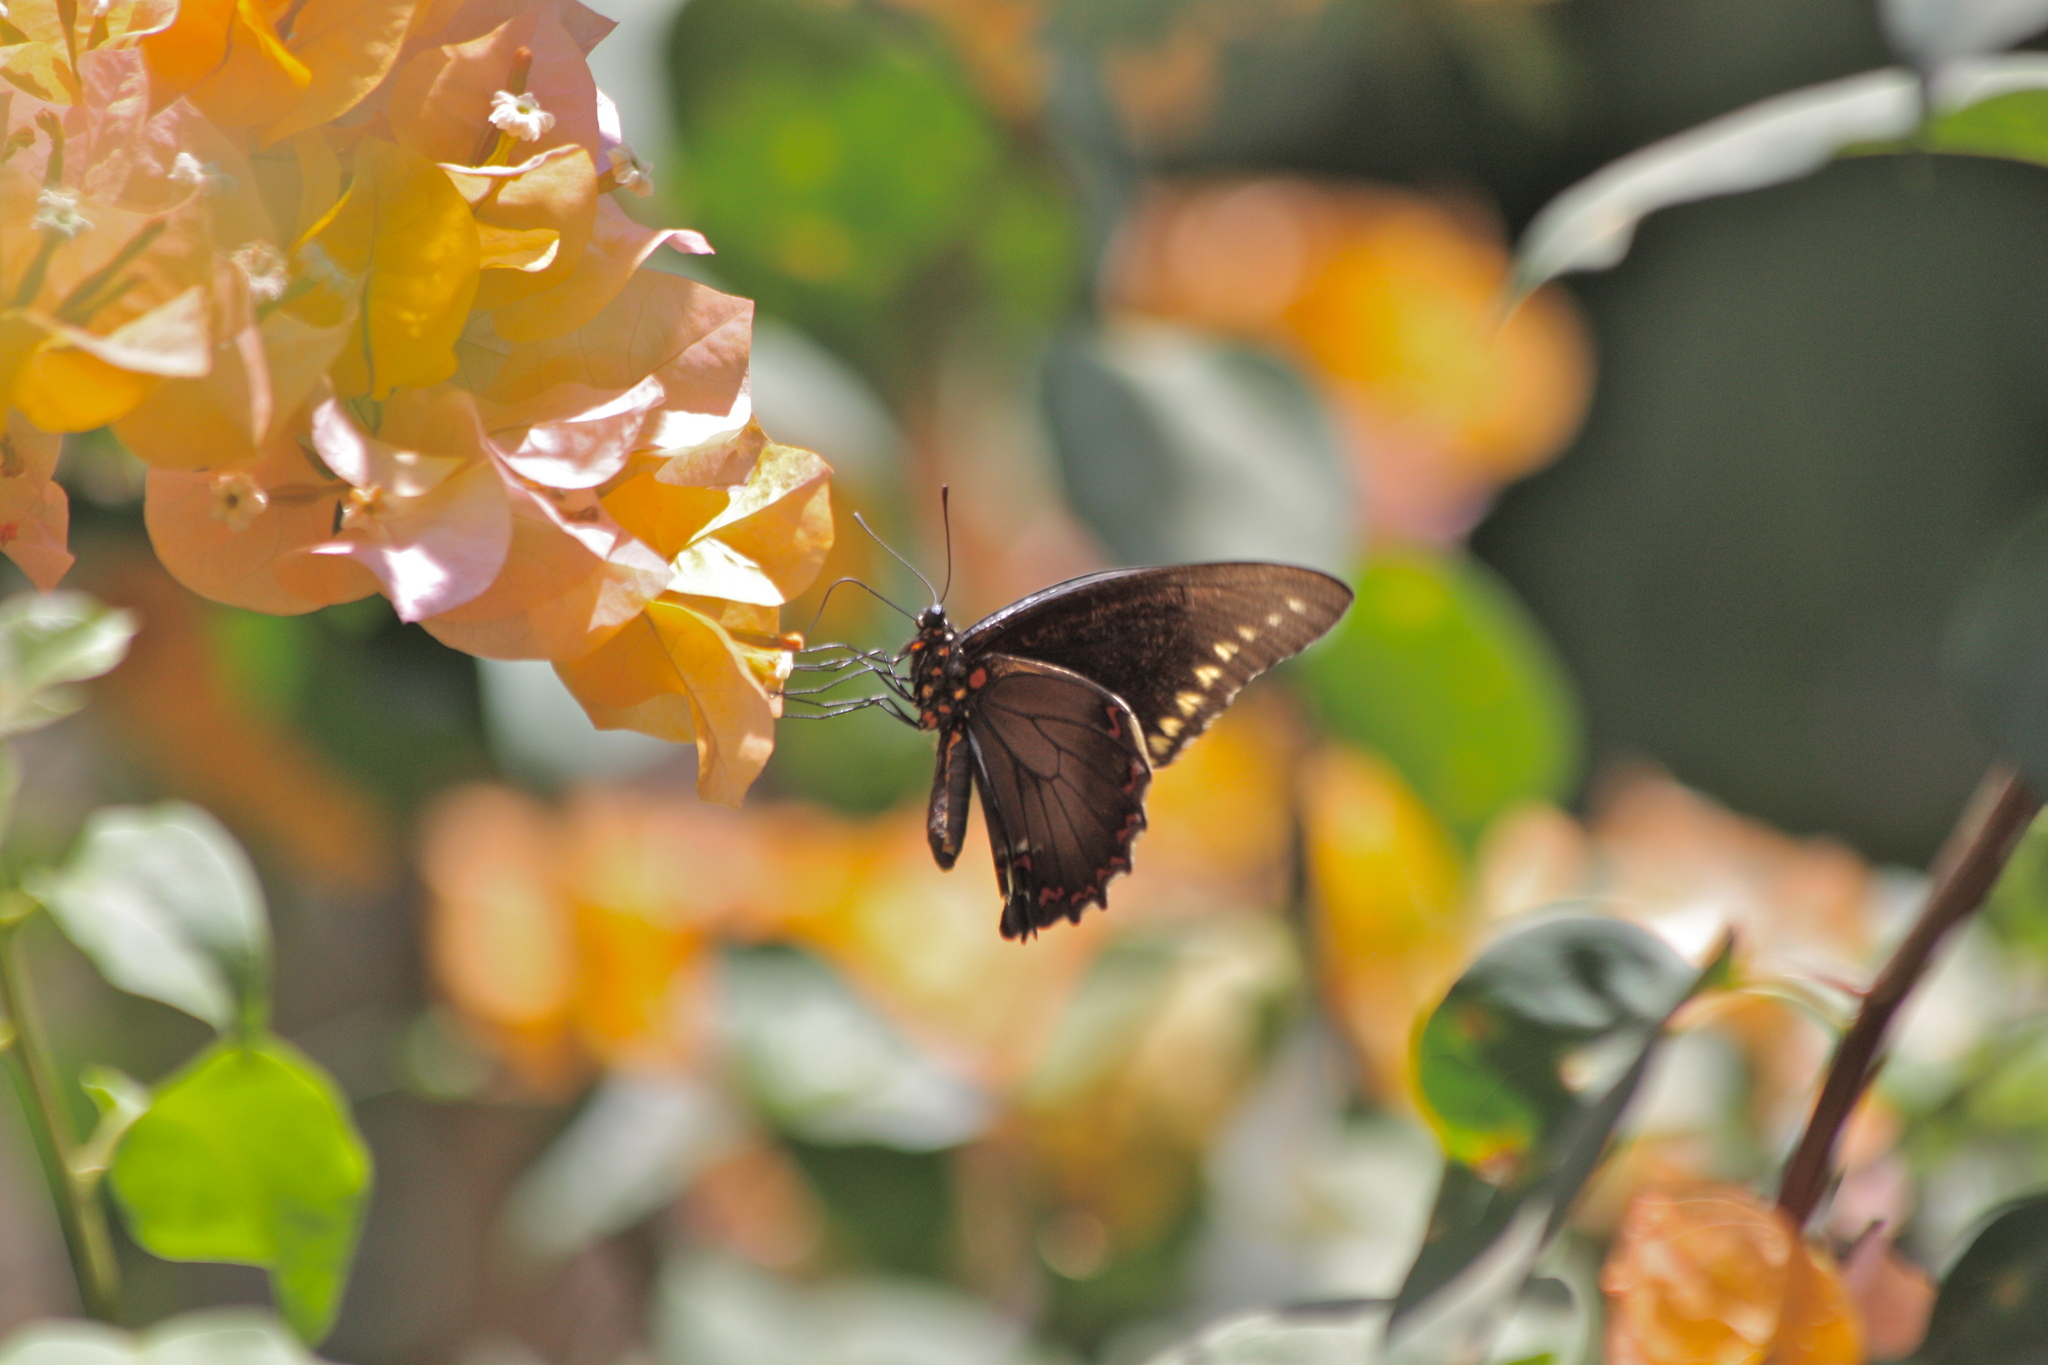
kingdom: Animalia
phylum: Arthropoda
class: Insecta
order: Lepidoptera
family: Papilionidae
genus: Battus
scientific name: Battus polydamas
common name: Polydamas swallowtail
